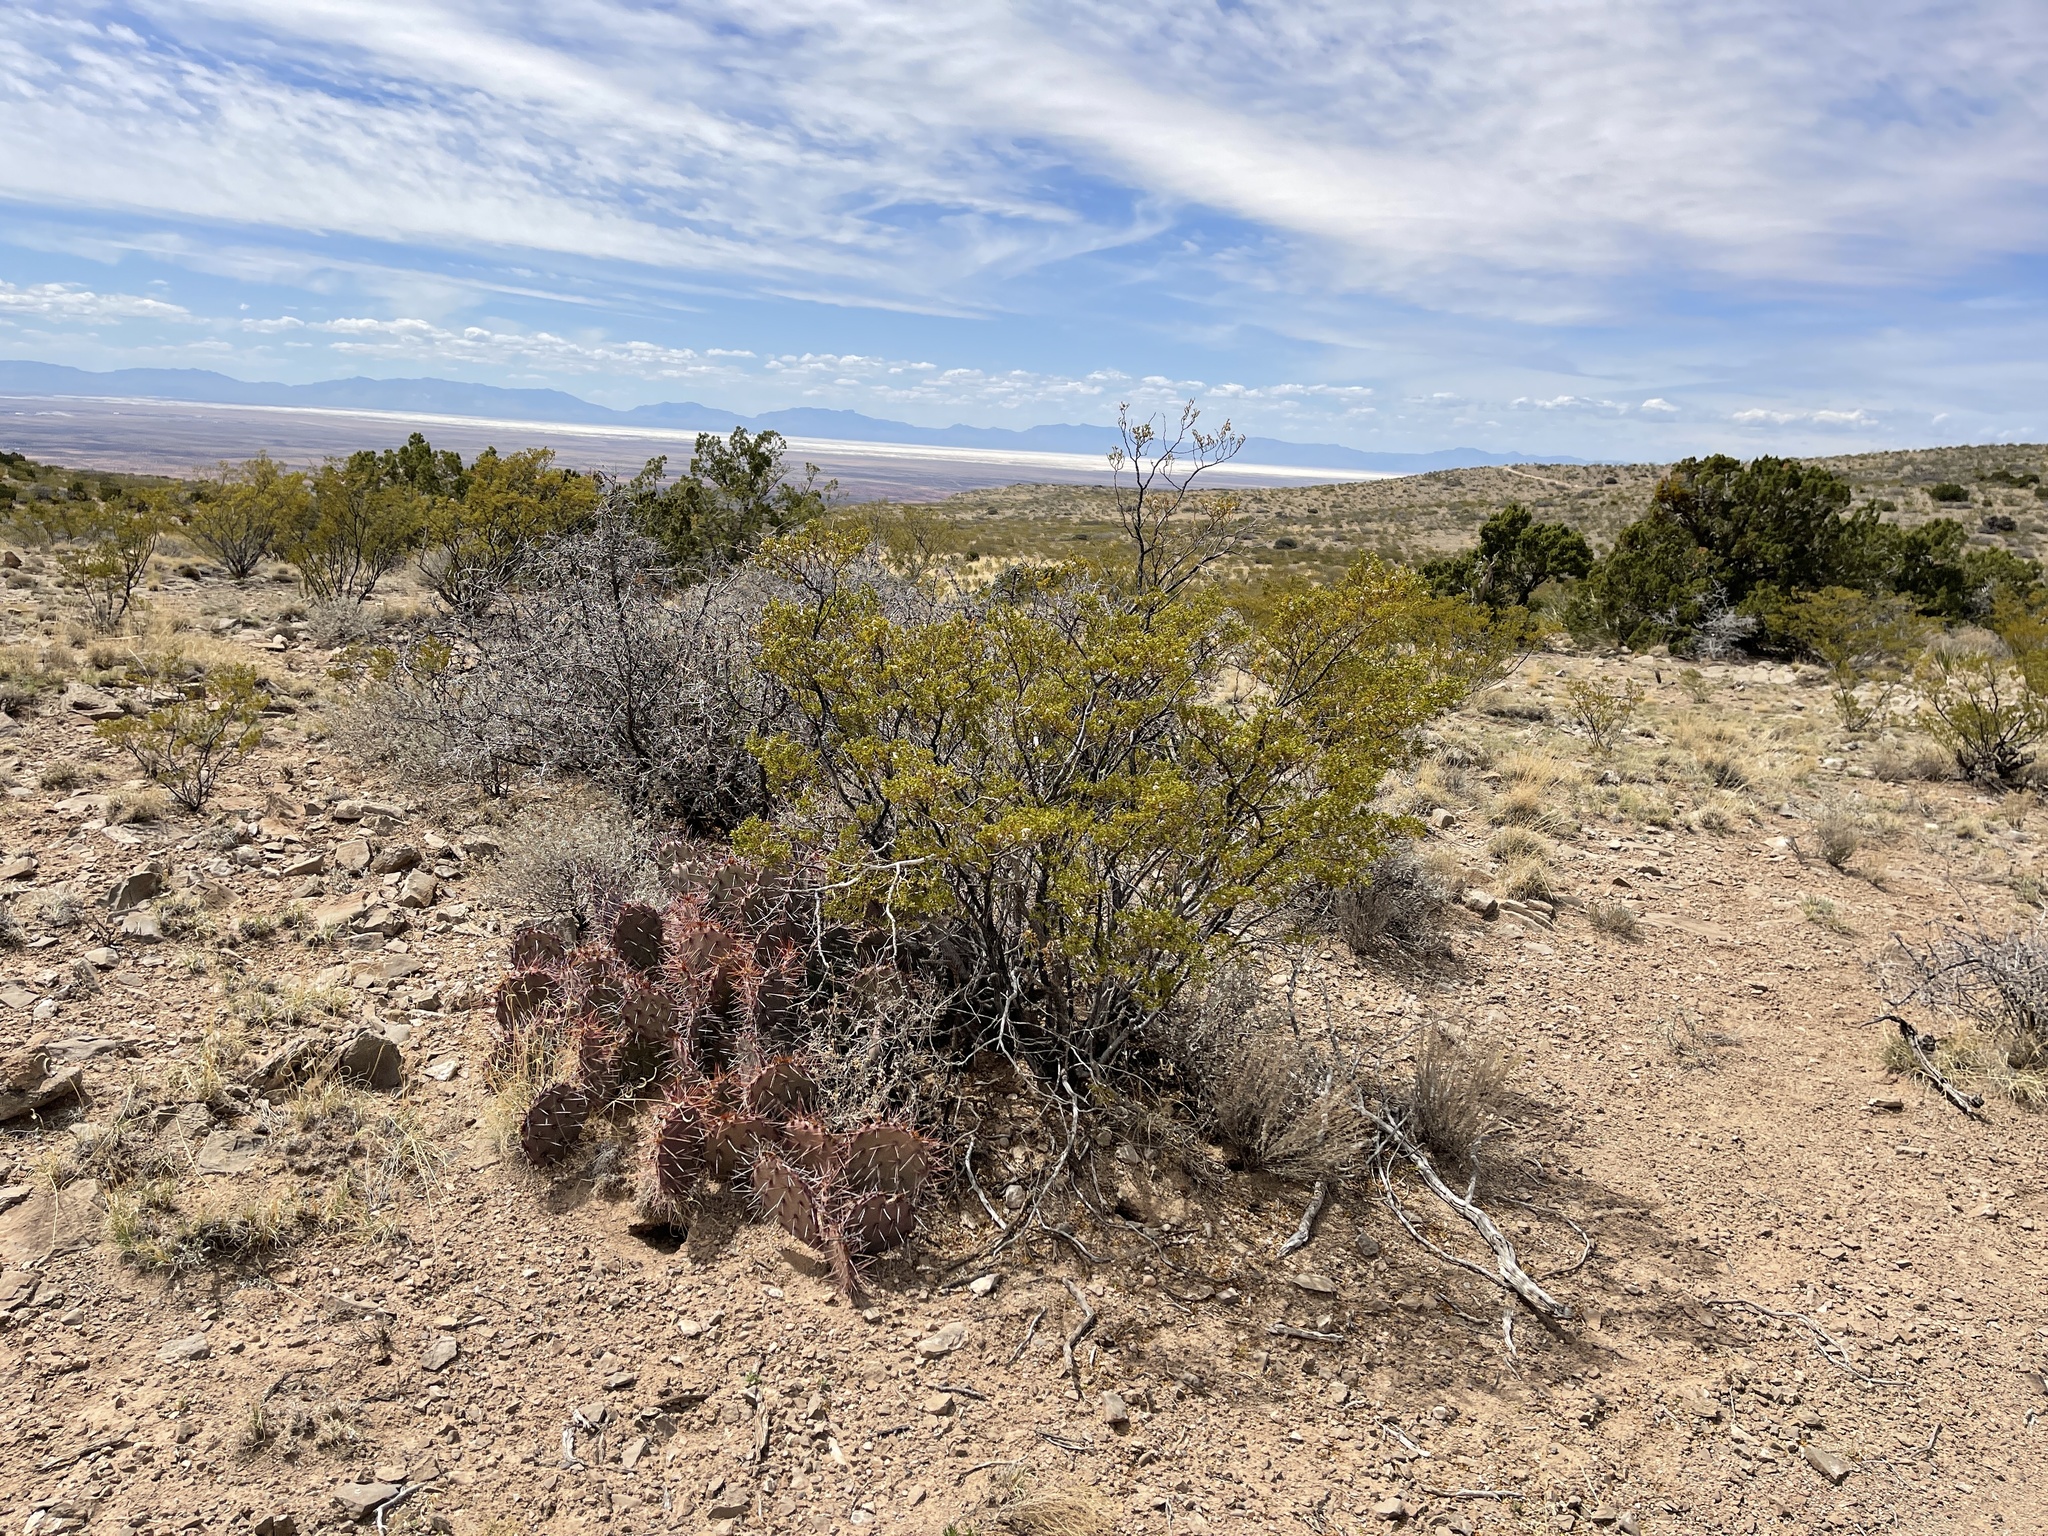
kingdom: Plantae
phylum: Tracheophyta
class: Magnoliopsida
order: Zygophyllales
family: Zygophyllaceae
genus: Larrea
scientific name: Larrea tridentata
